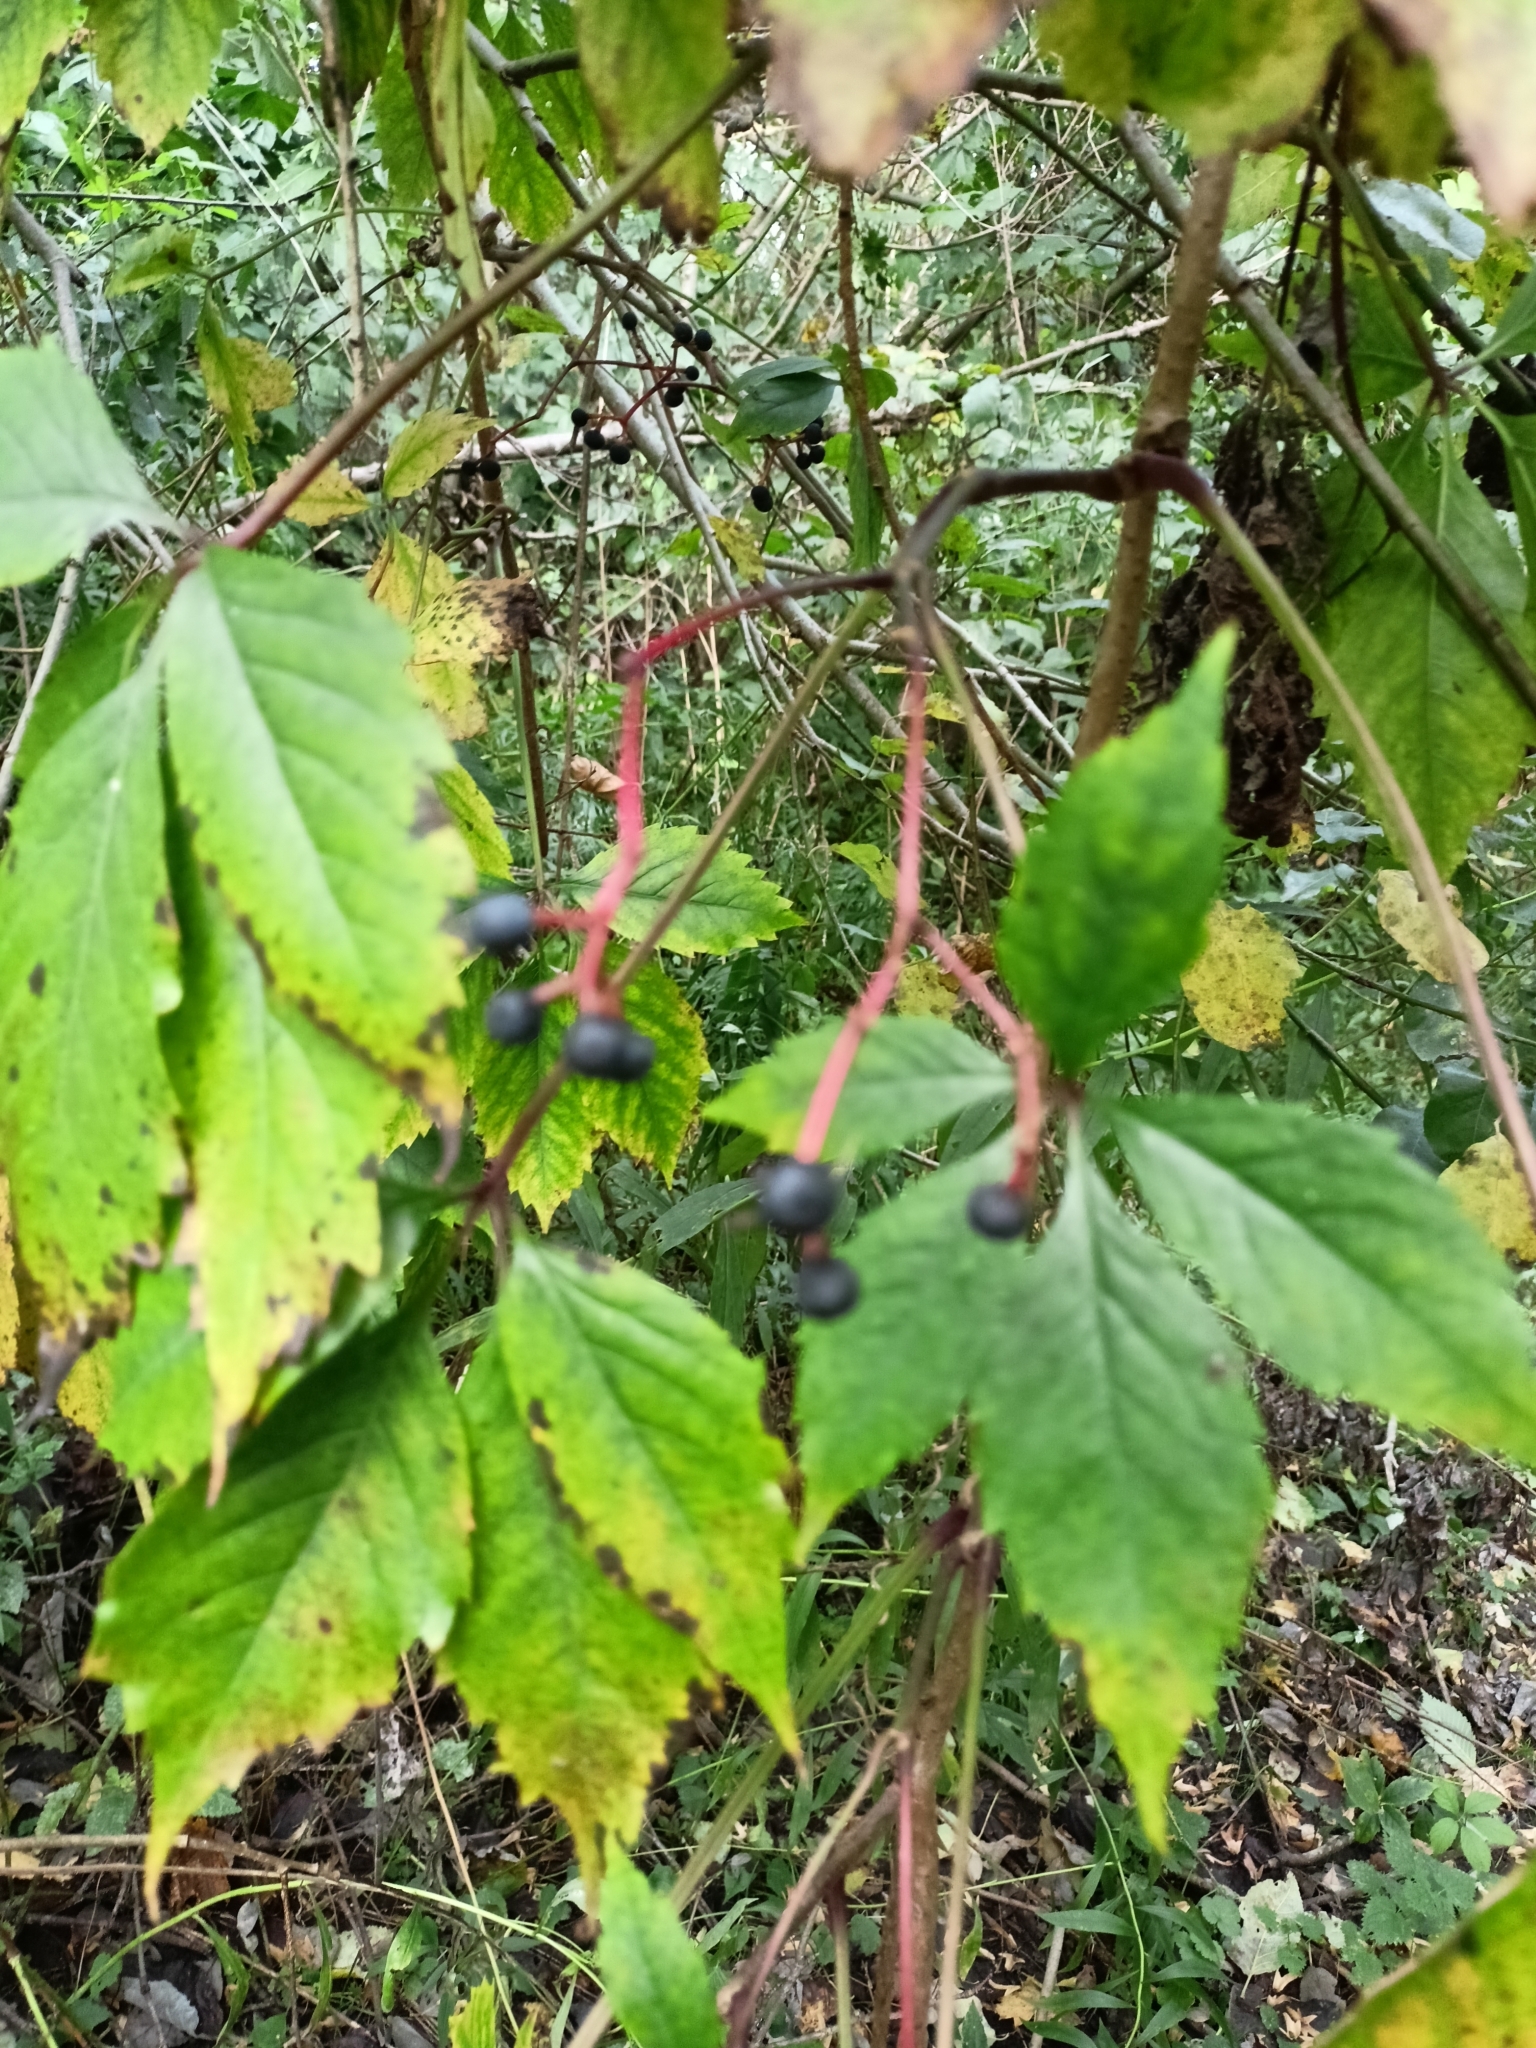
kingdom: Plantae
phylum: Tracheophyta
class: Magnoliopsida
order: Vitales
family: Vitaceae
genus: Parthenocissus
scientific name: Parthenocissus inserta
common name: False virginia-creeper
